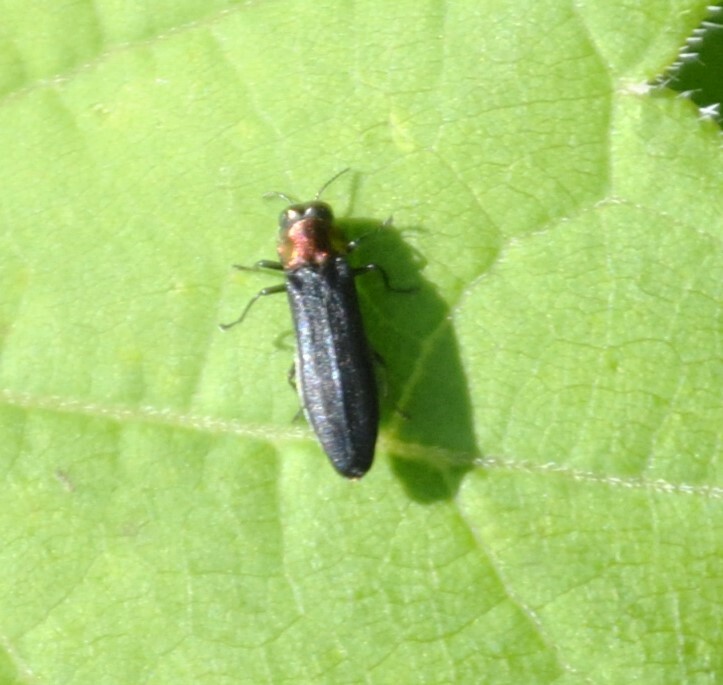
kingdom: Animalia
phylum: Arthropoda
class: Insecta
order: Coleoptera
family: Buprestidae
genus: Agrilus
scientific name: Agrilus ruficollis
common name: Red-necked cane borer beetle
